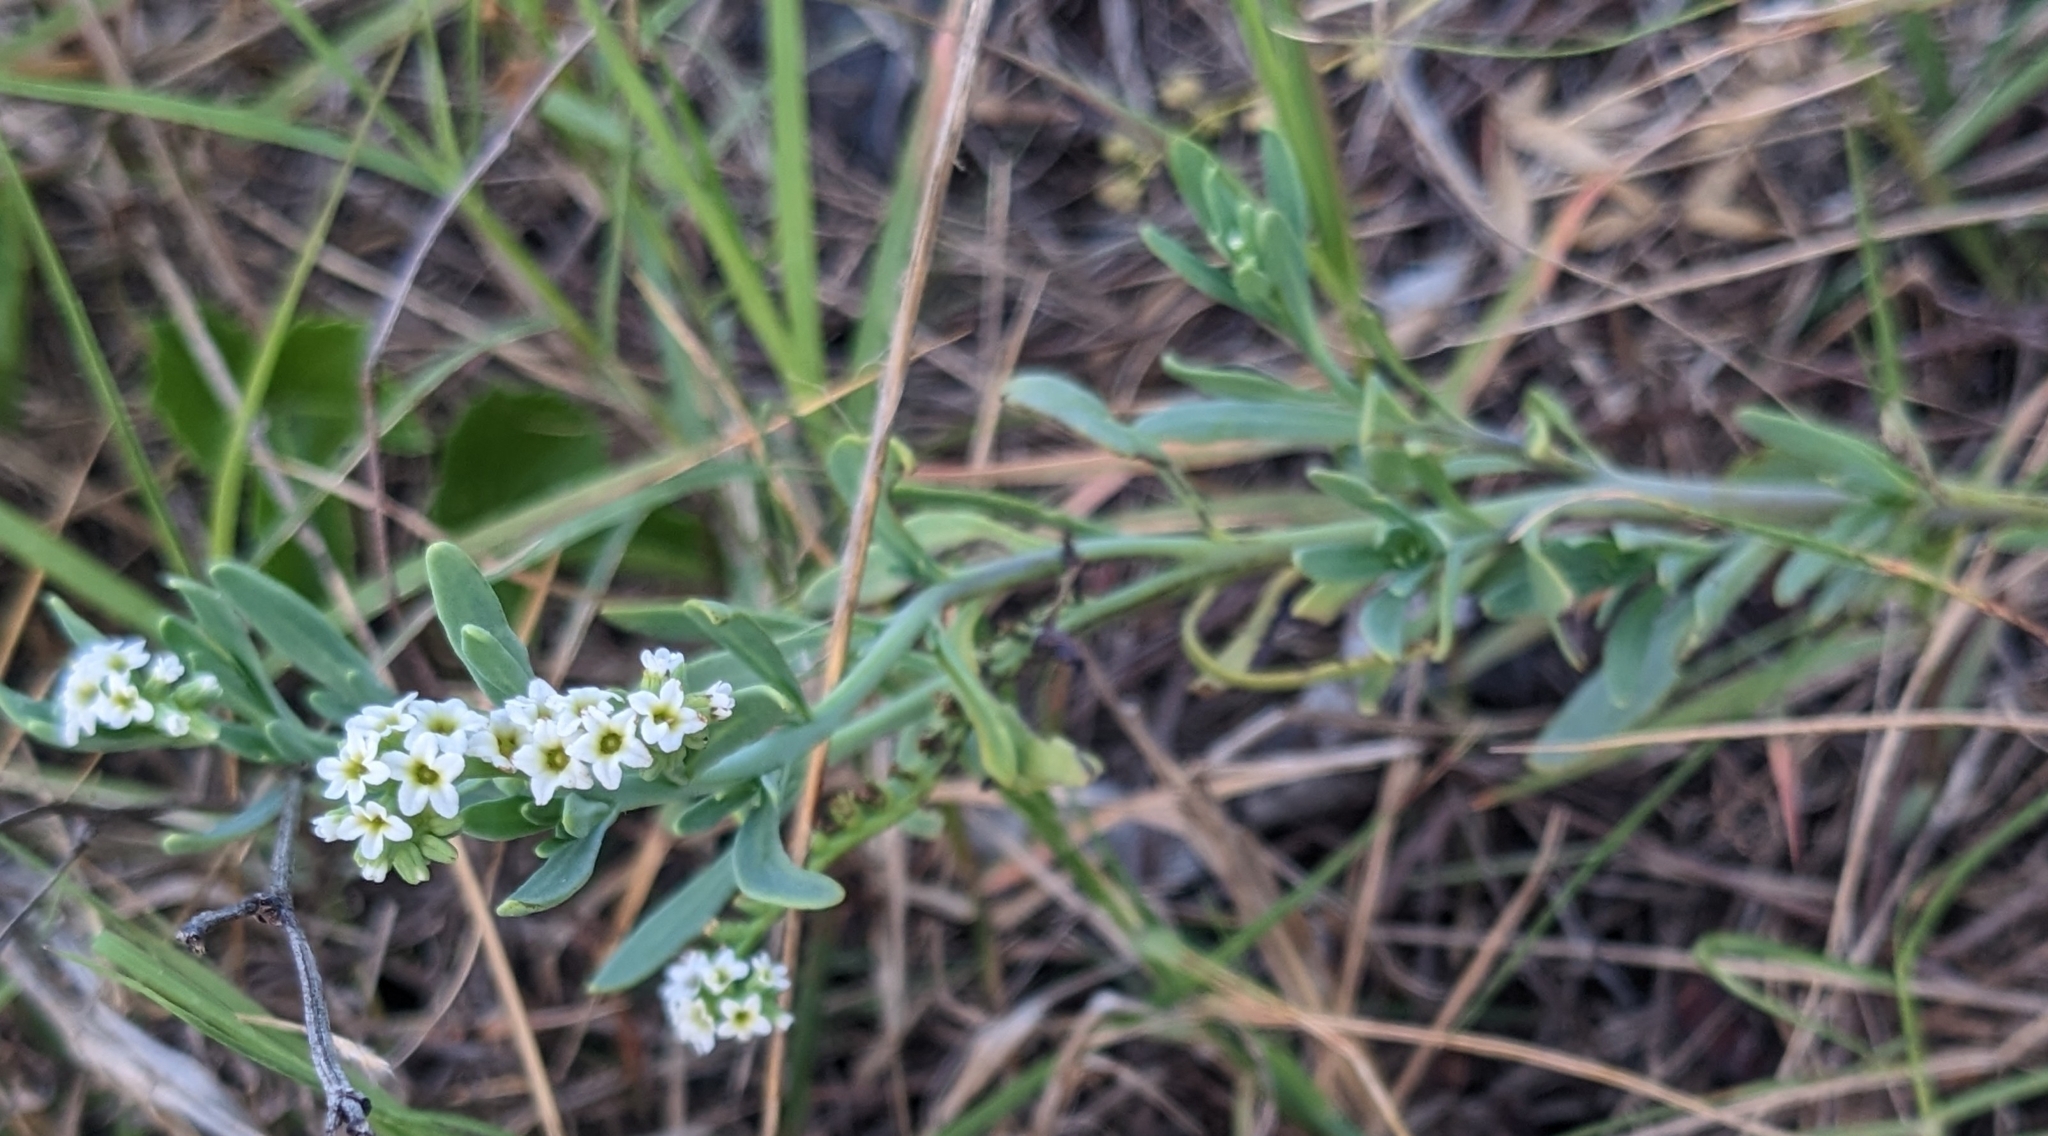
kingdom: Plantae
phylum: Tracheophyta
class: Magnoliopsida
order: Boraginales
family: Heliotropiaceae
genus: Heliotropium
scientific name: Heliotropium curassavicum
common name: Seaside heliotrope
